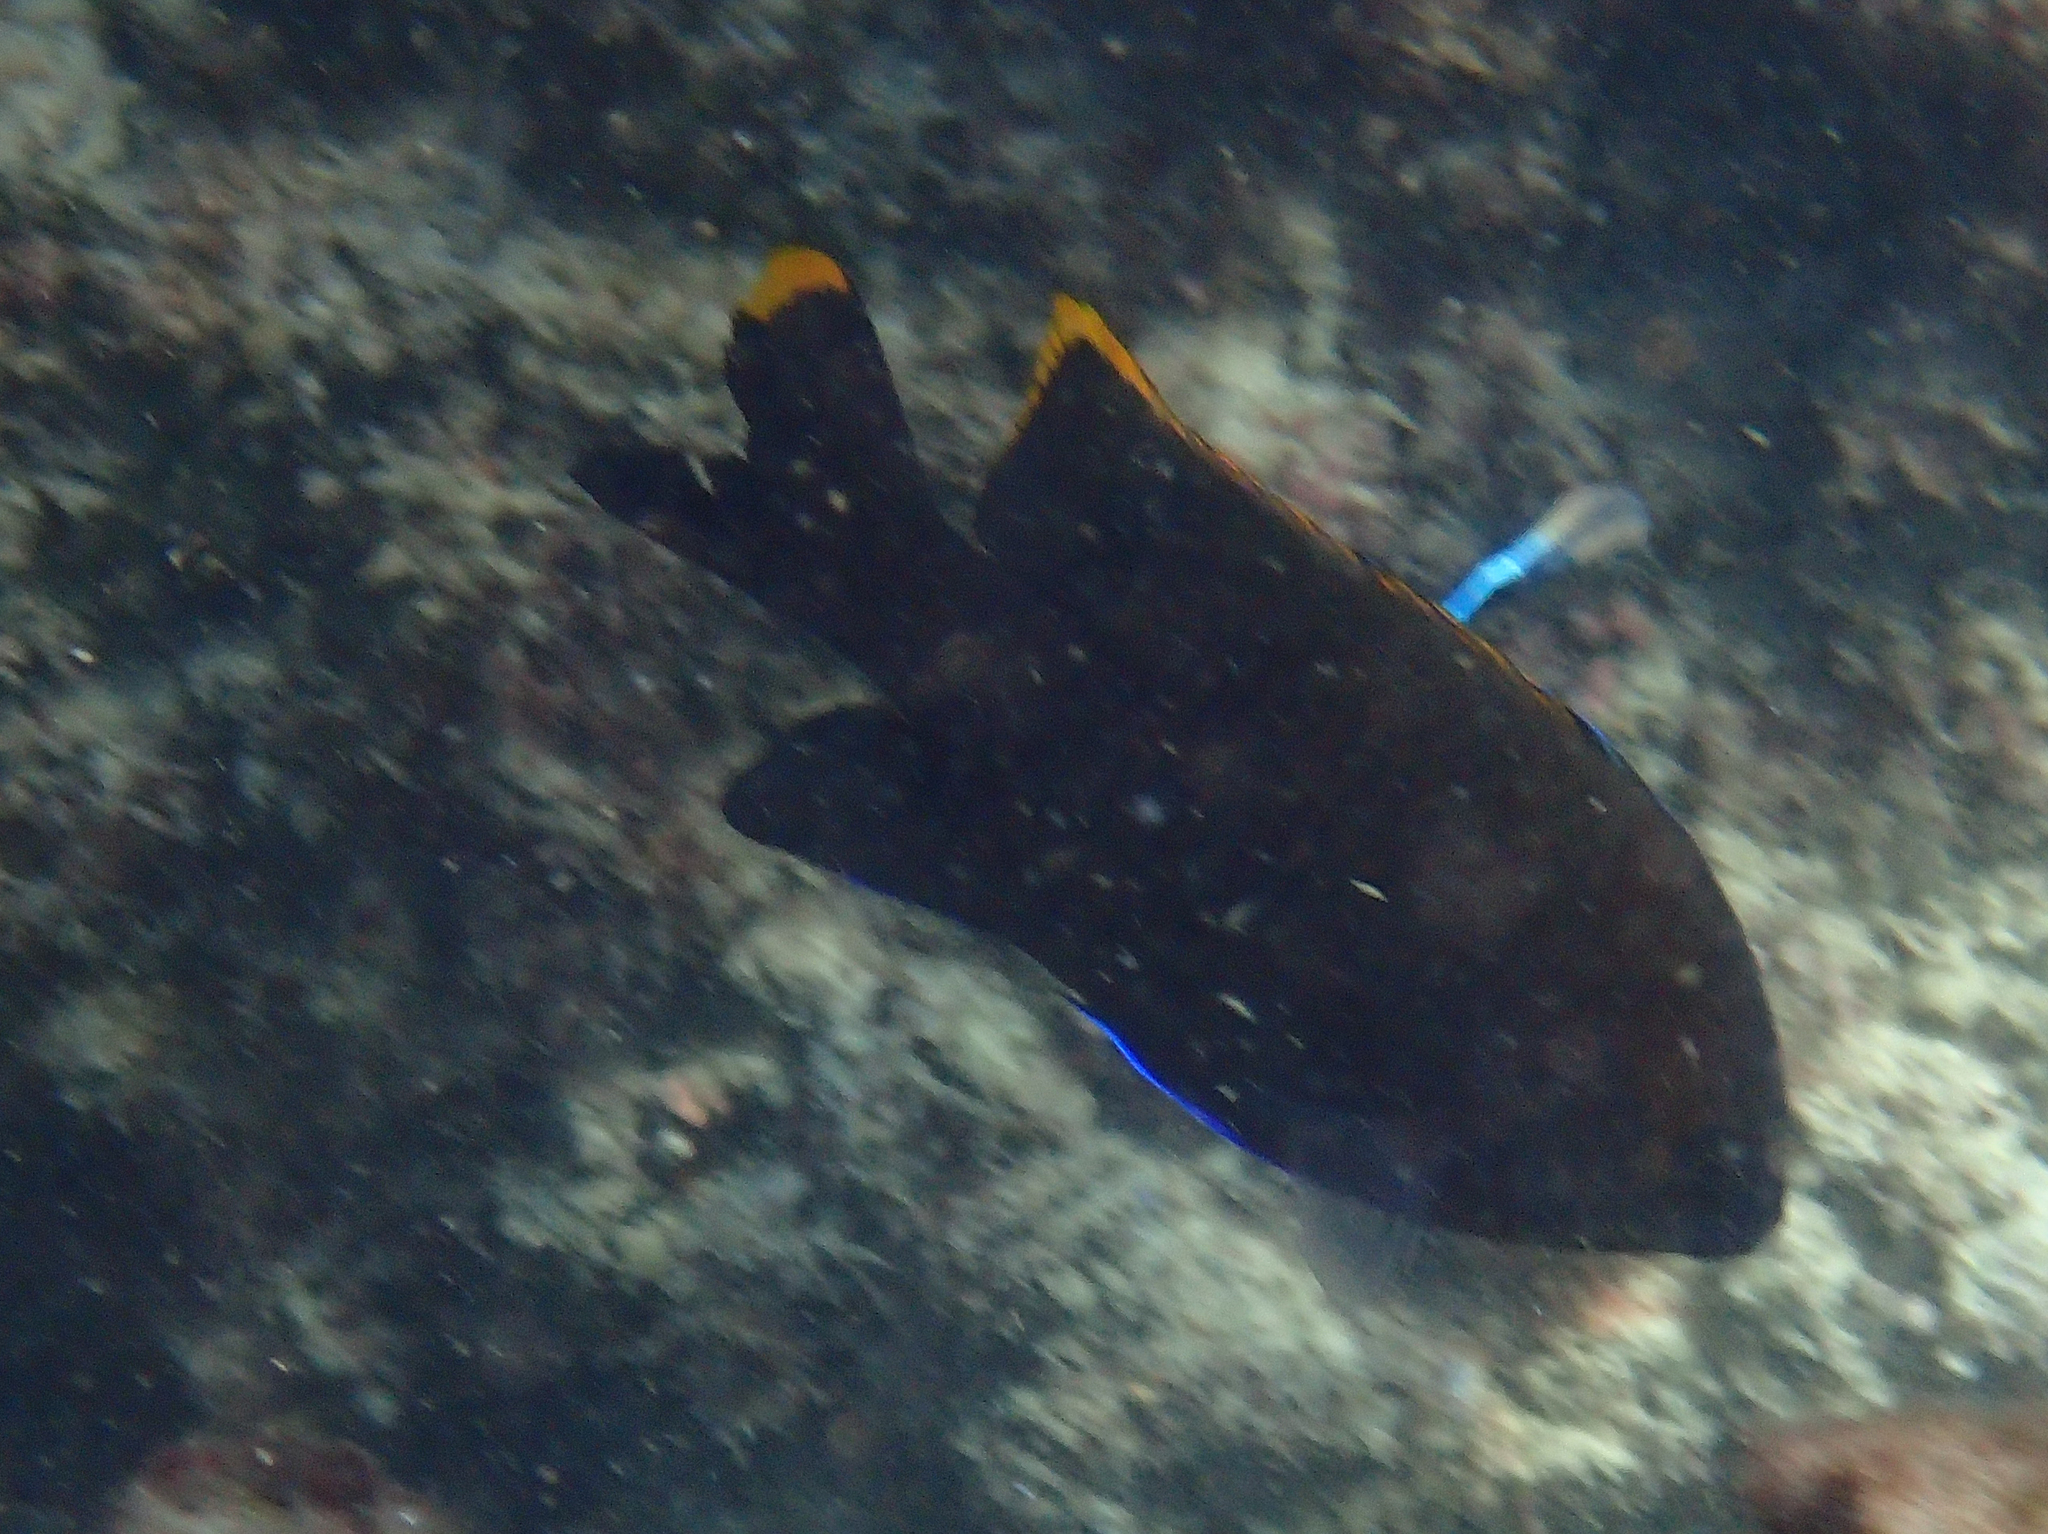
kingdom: Animalia
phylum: Chordata
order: Perciformes
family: Pomacentridae
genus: Stegastes
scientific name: Stegastes apicalis
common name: Australian gregory
